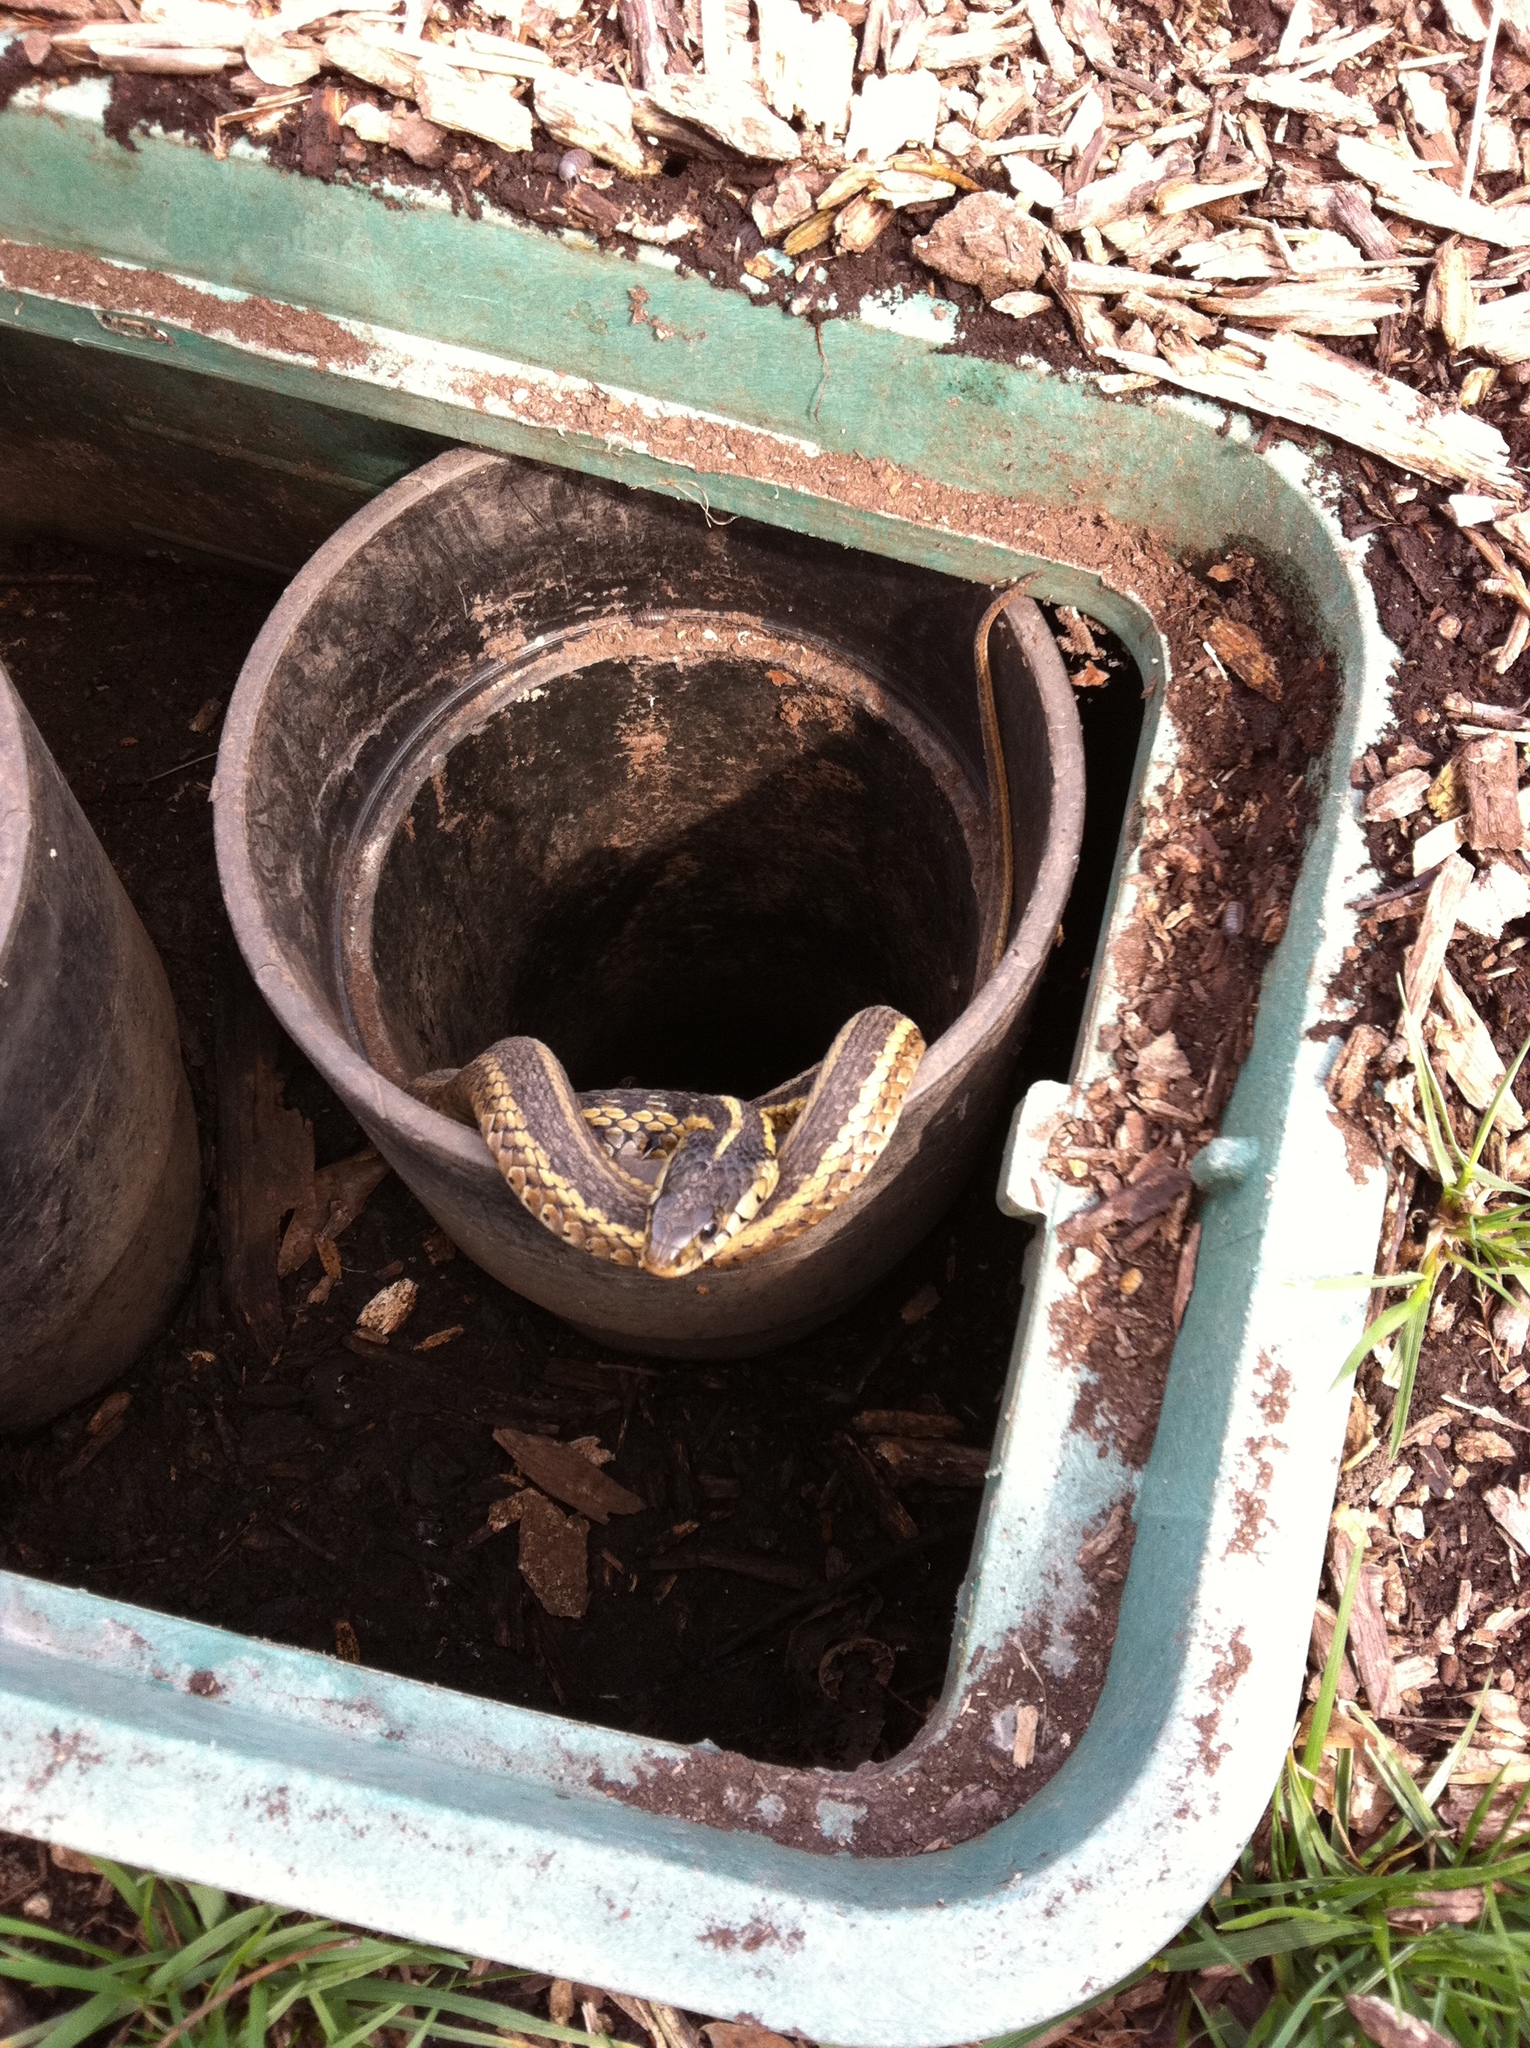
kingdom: Animalia
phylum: Chordata
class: Squamata
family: Colubridae
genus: Thamnophis
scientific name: Thamnophis sirtalis
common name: Common garter snake
